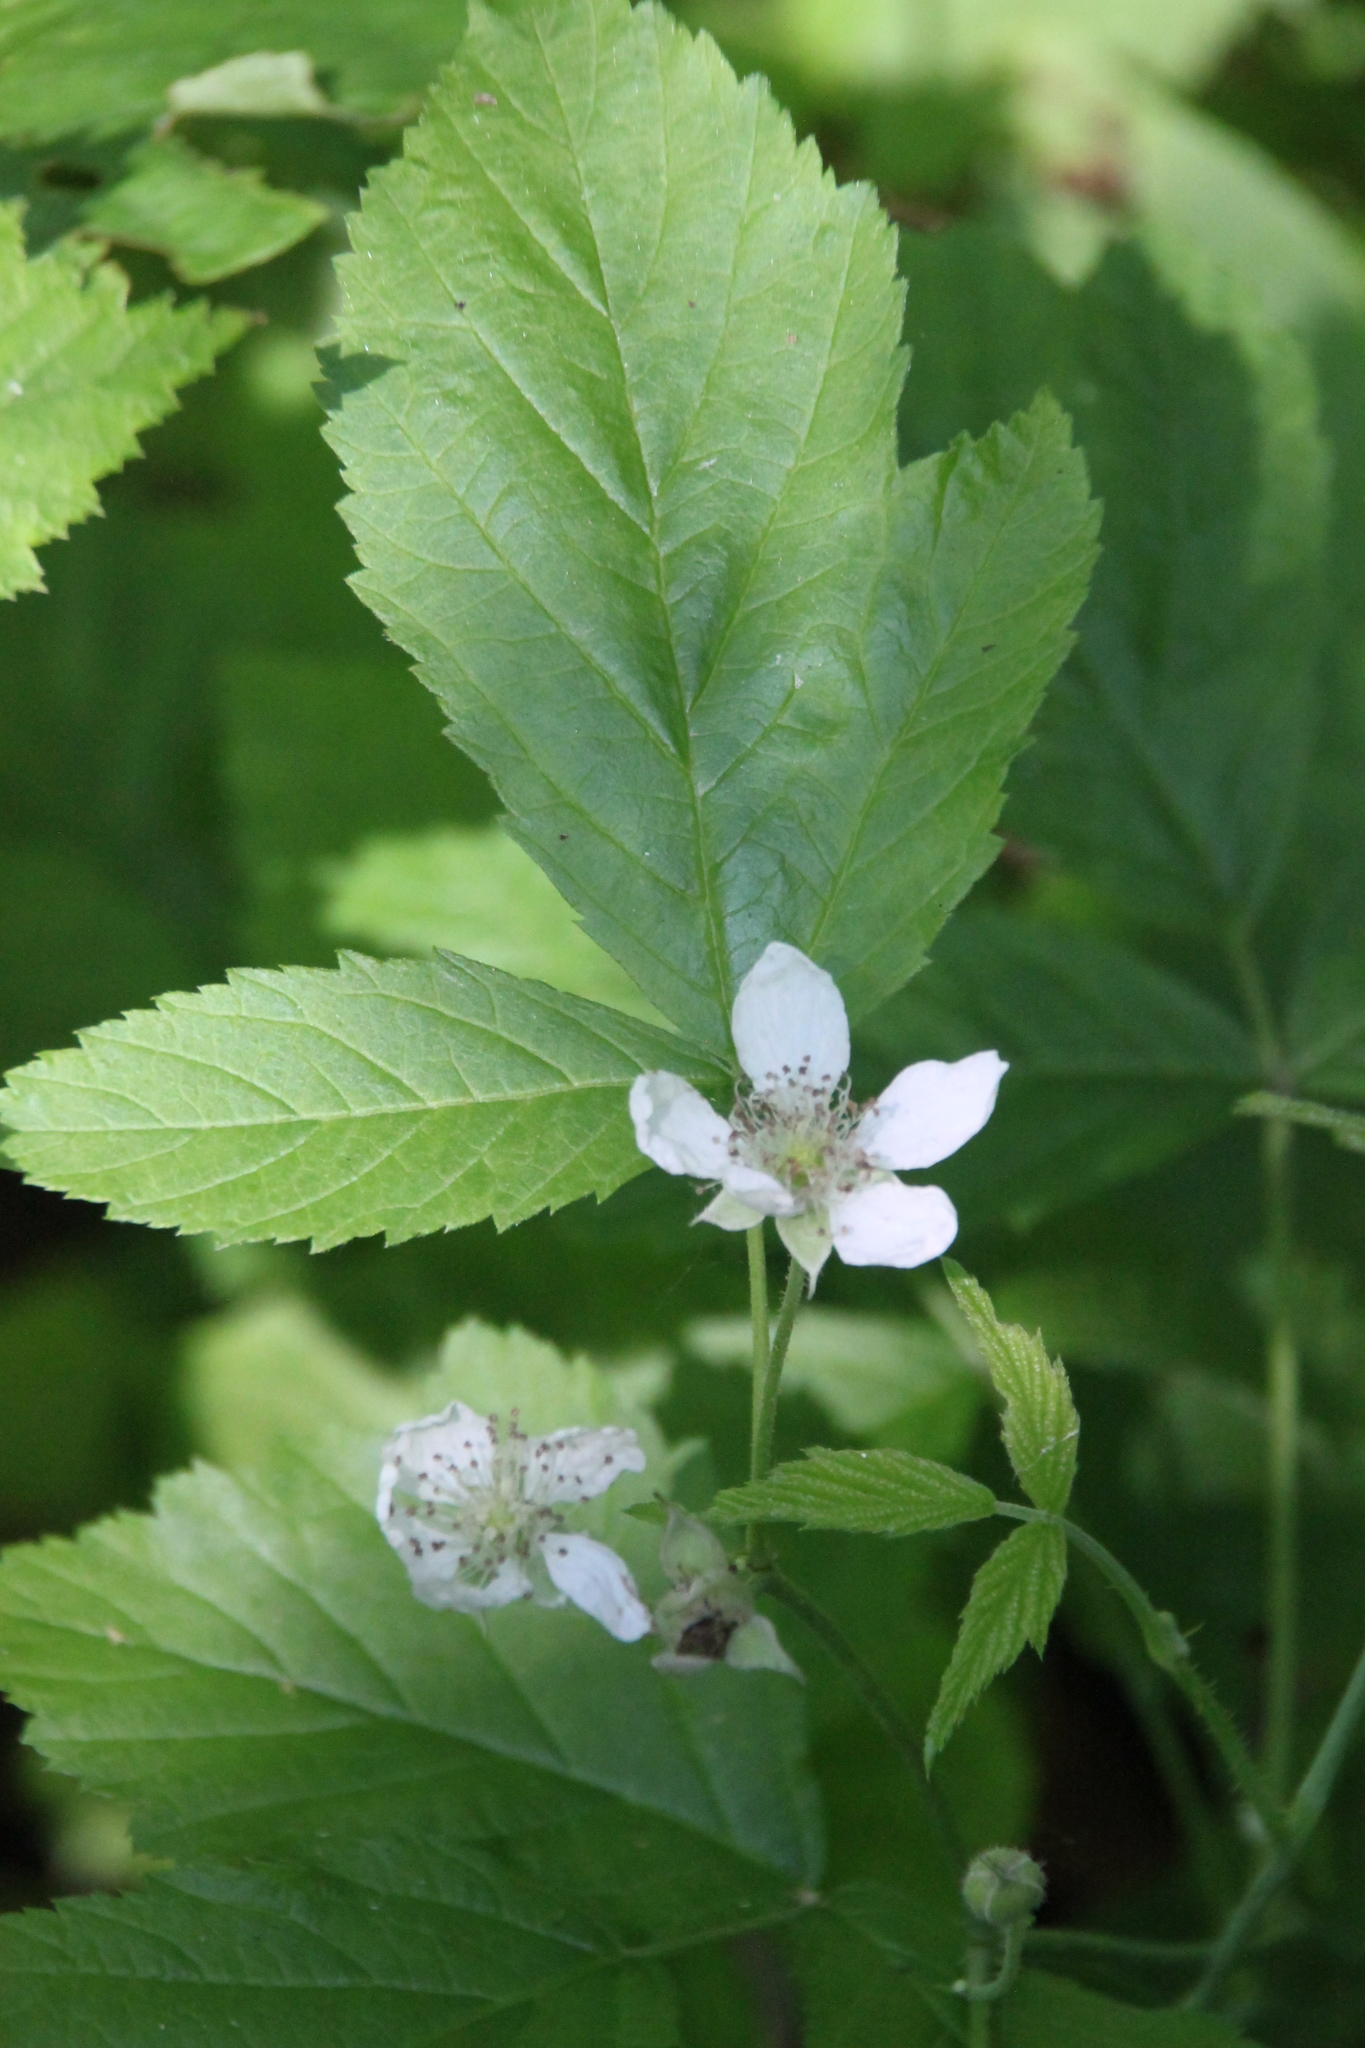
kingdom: Plantae
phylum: Tracheophyta
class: Magnoliopsida
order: Rosales
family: Rosaceae
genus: Rubus
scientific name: Rubus caesius
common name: Dewberry
